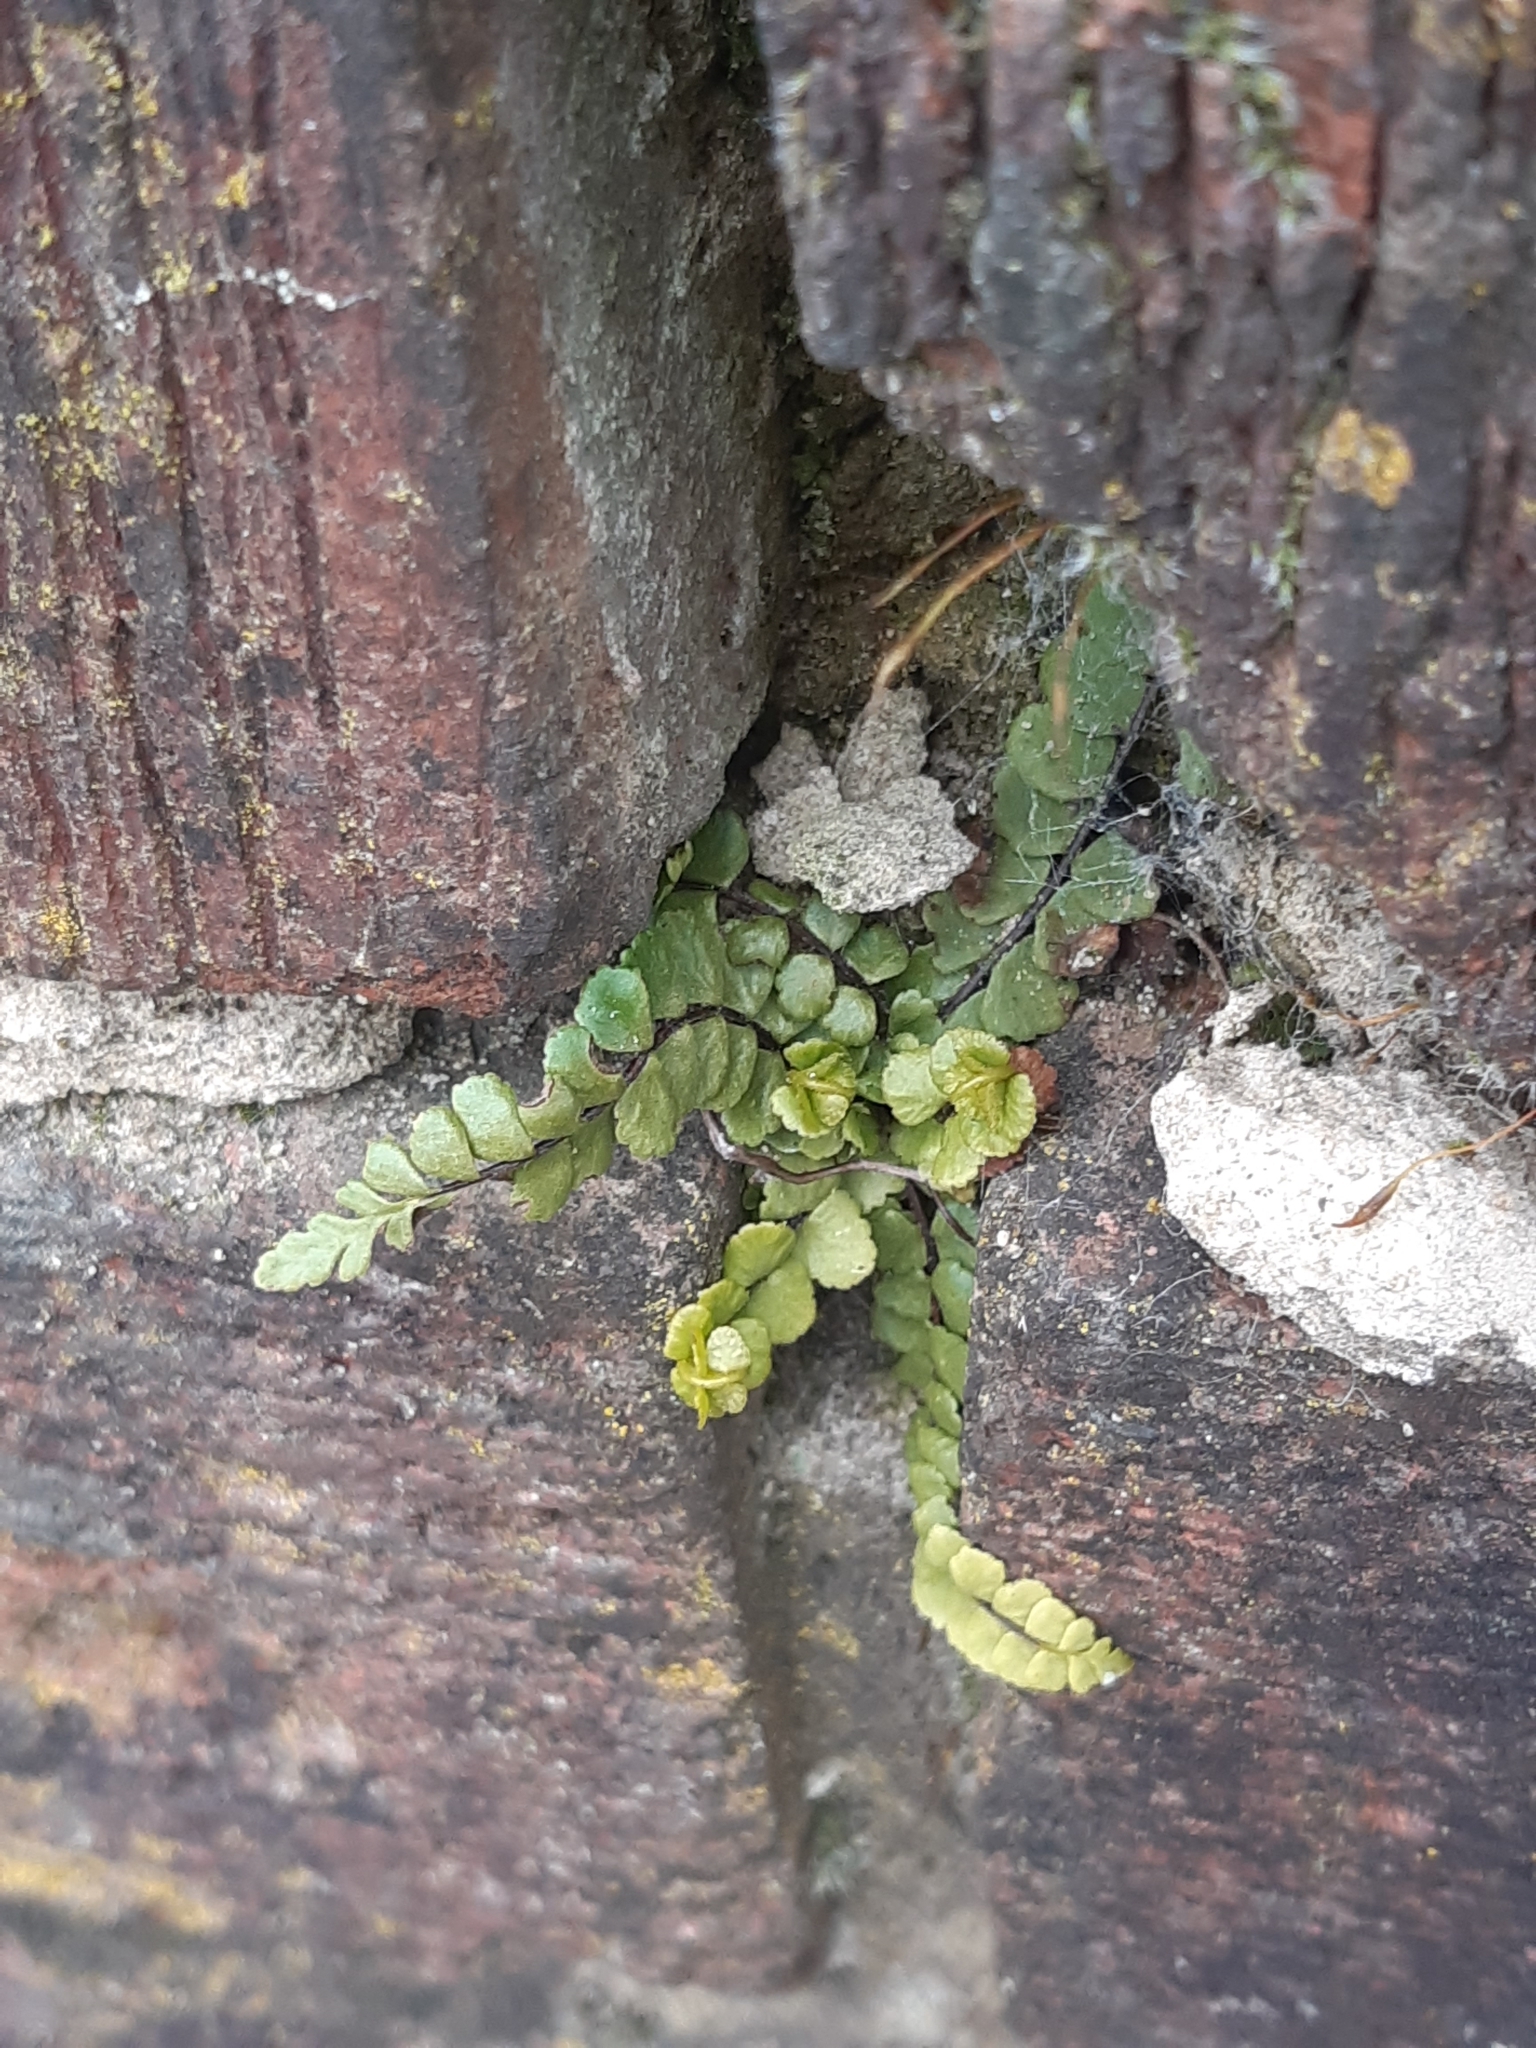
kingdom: Plantae
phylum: Tracheophyta
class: Polypodiopsida
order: Polypodiales
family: Aspleniaceae
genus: Asplenium
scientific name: Asplenium trichomanes
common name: Maidenhair spleenwort
